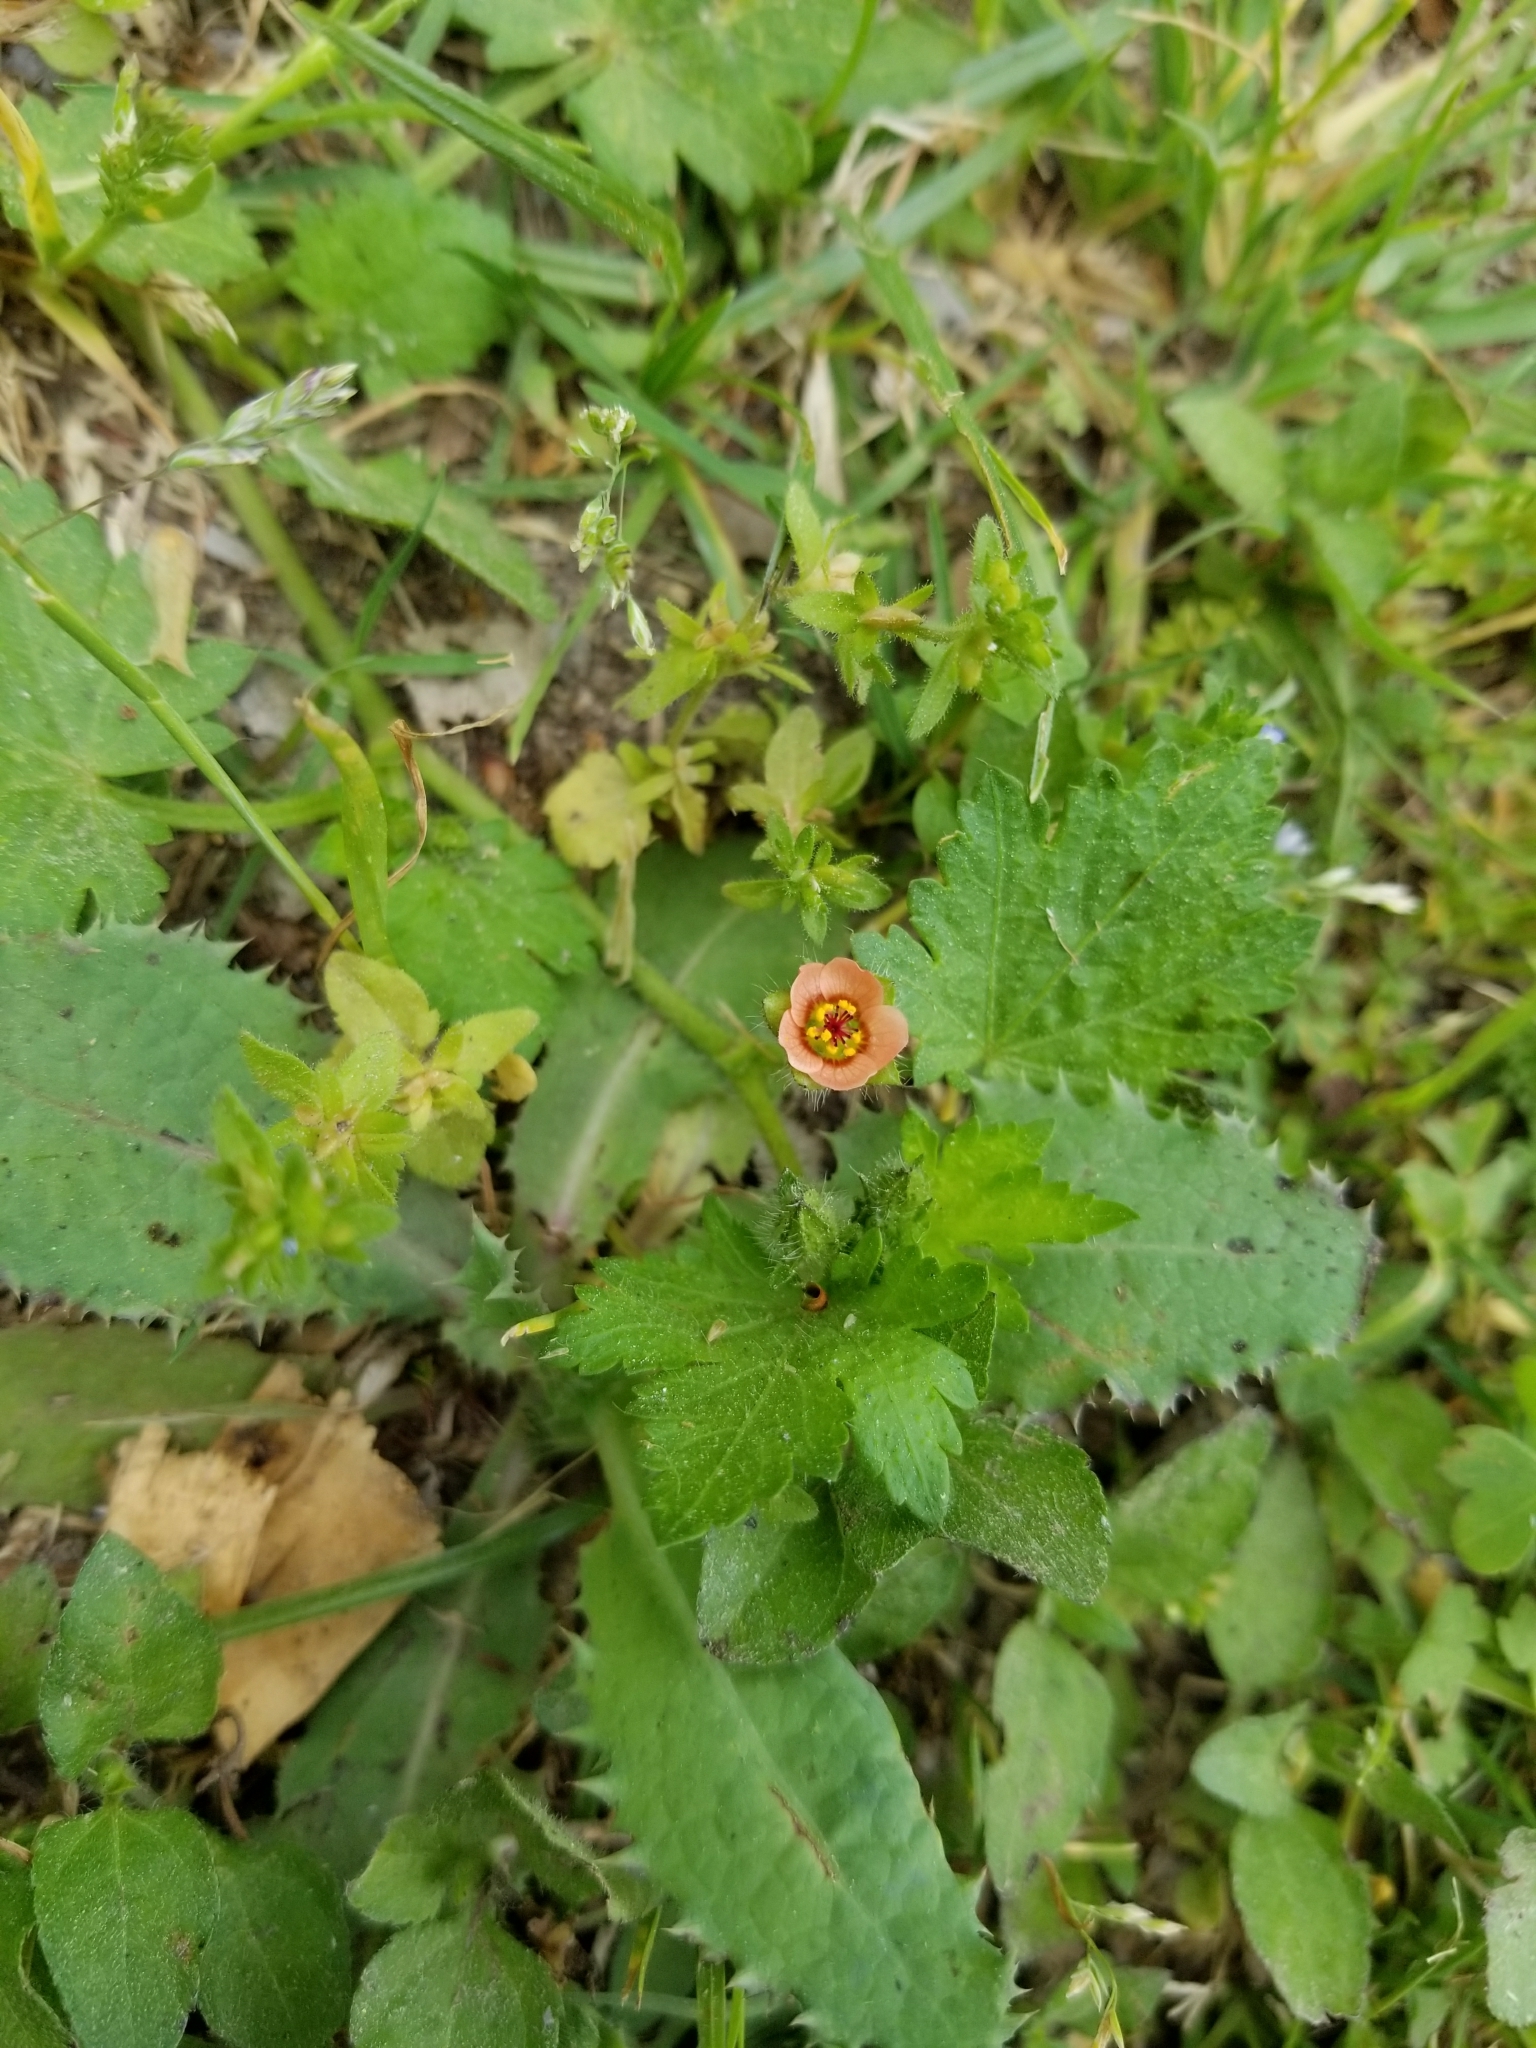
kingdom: Plantae
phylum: Tracheophyta
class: Magnoliopsida
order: Malvales
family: Malvaceae
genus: Modiola
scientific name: Modiola caroliniana
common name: Carolina bristlemallow
